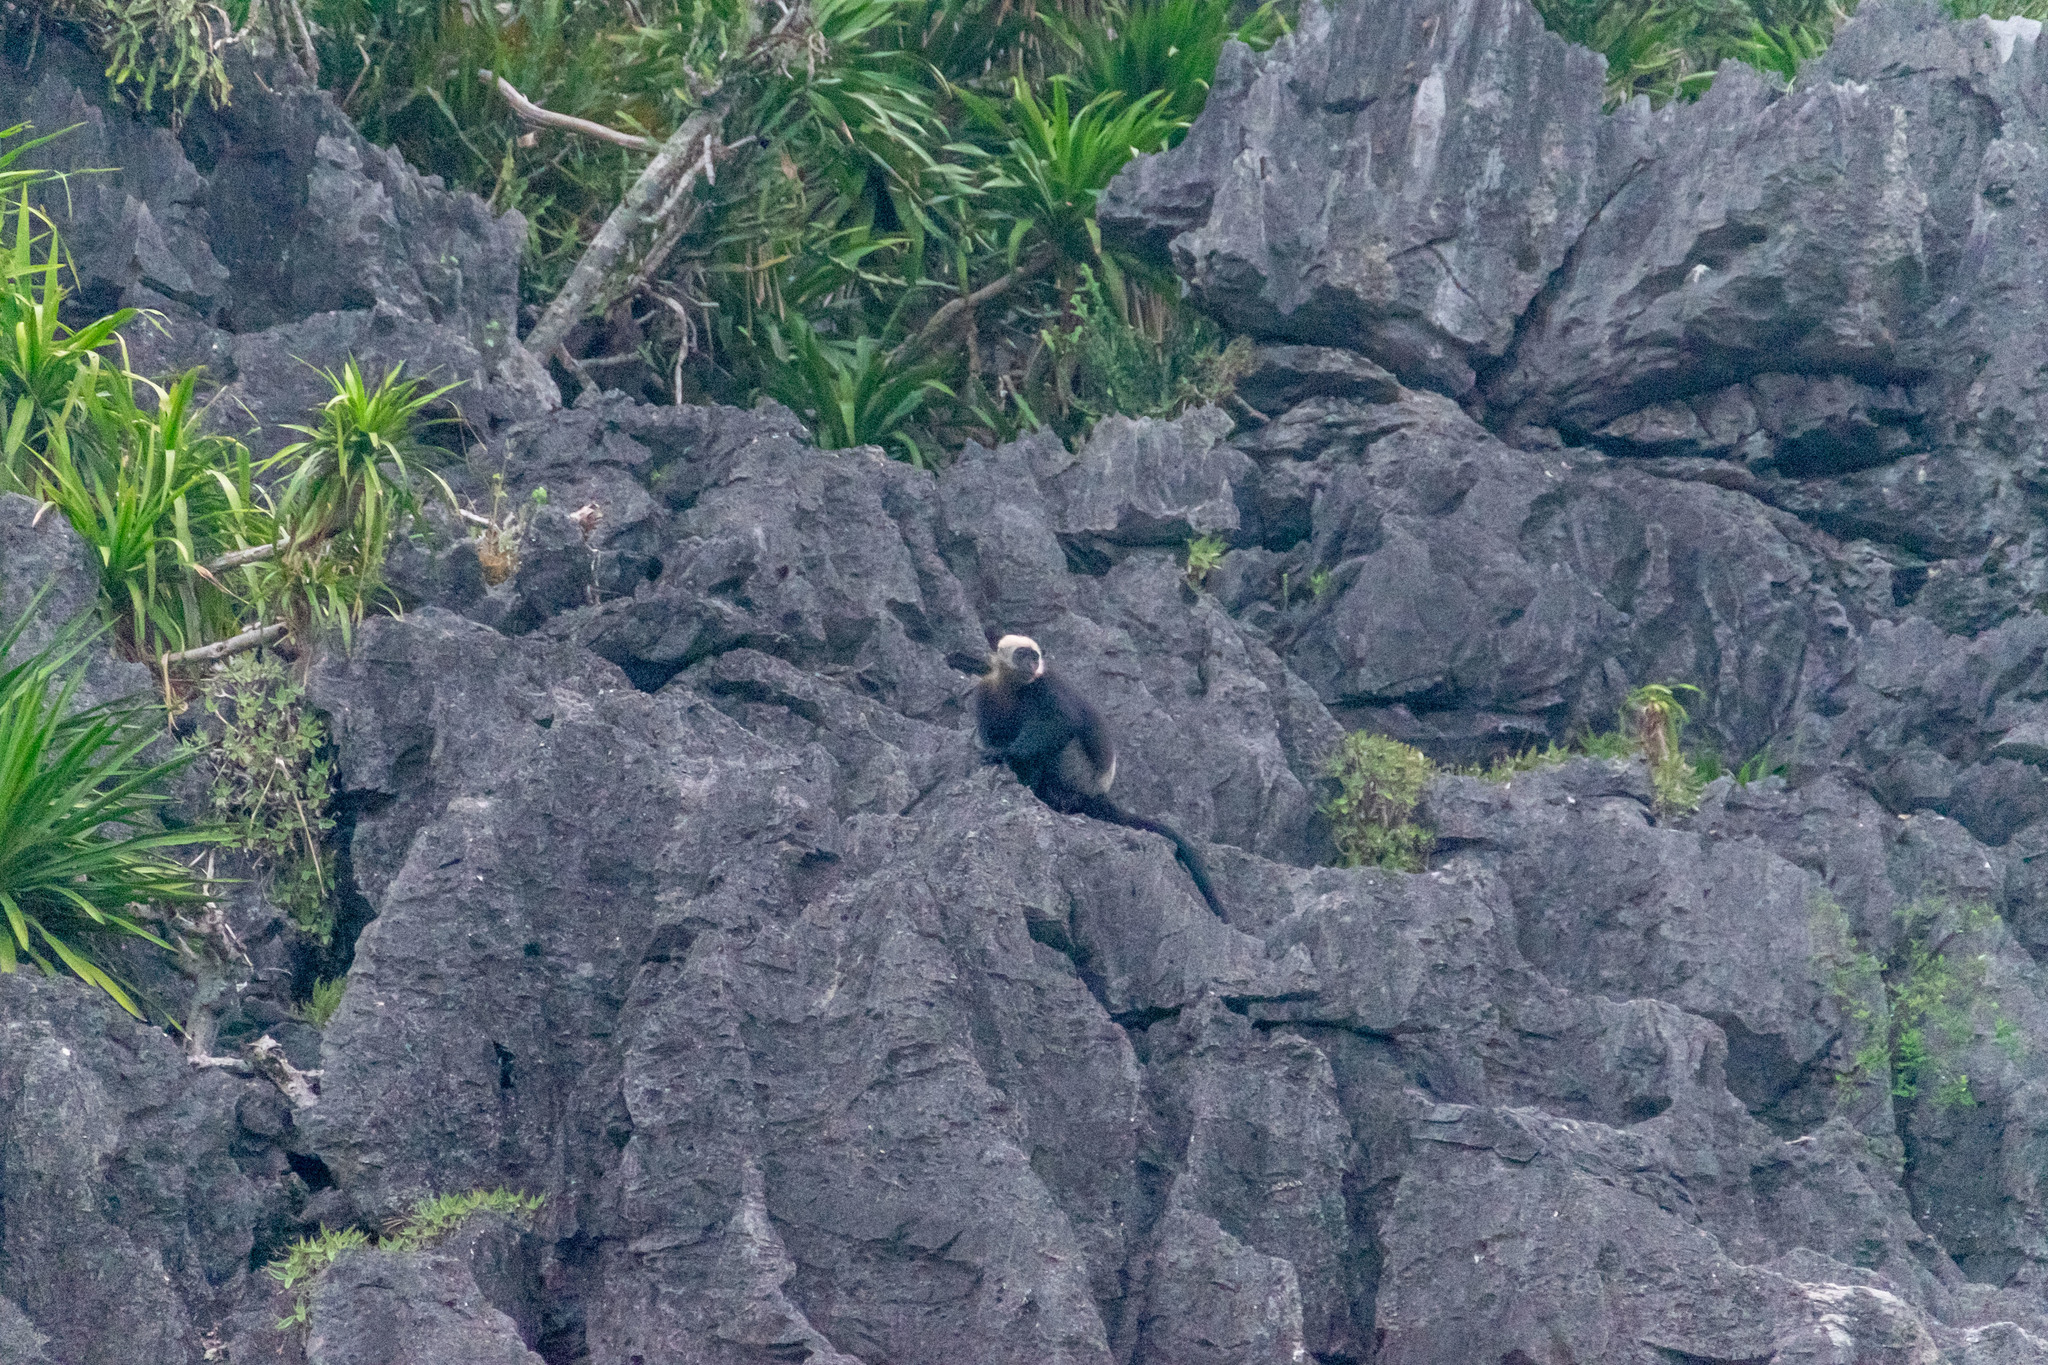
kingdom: Animalia
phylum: Chordata
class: Mammalia
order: Primates
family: Cercopithecidae
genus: Trachypithecus
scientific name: Trachypithecus poliocephalus
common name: Cat ba langur
